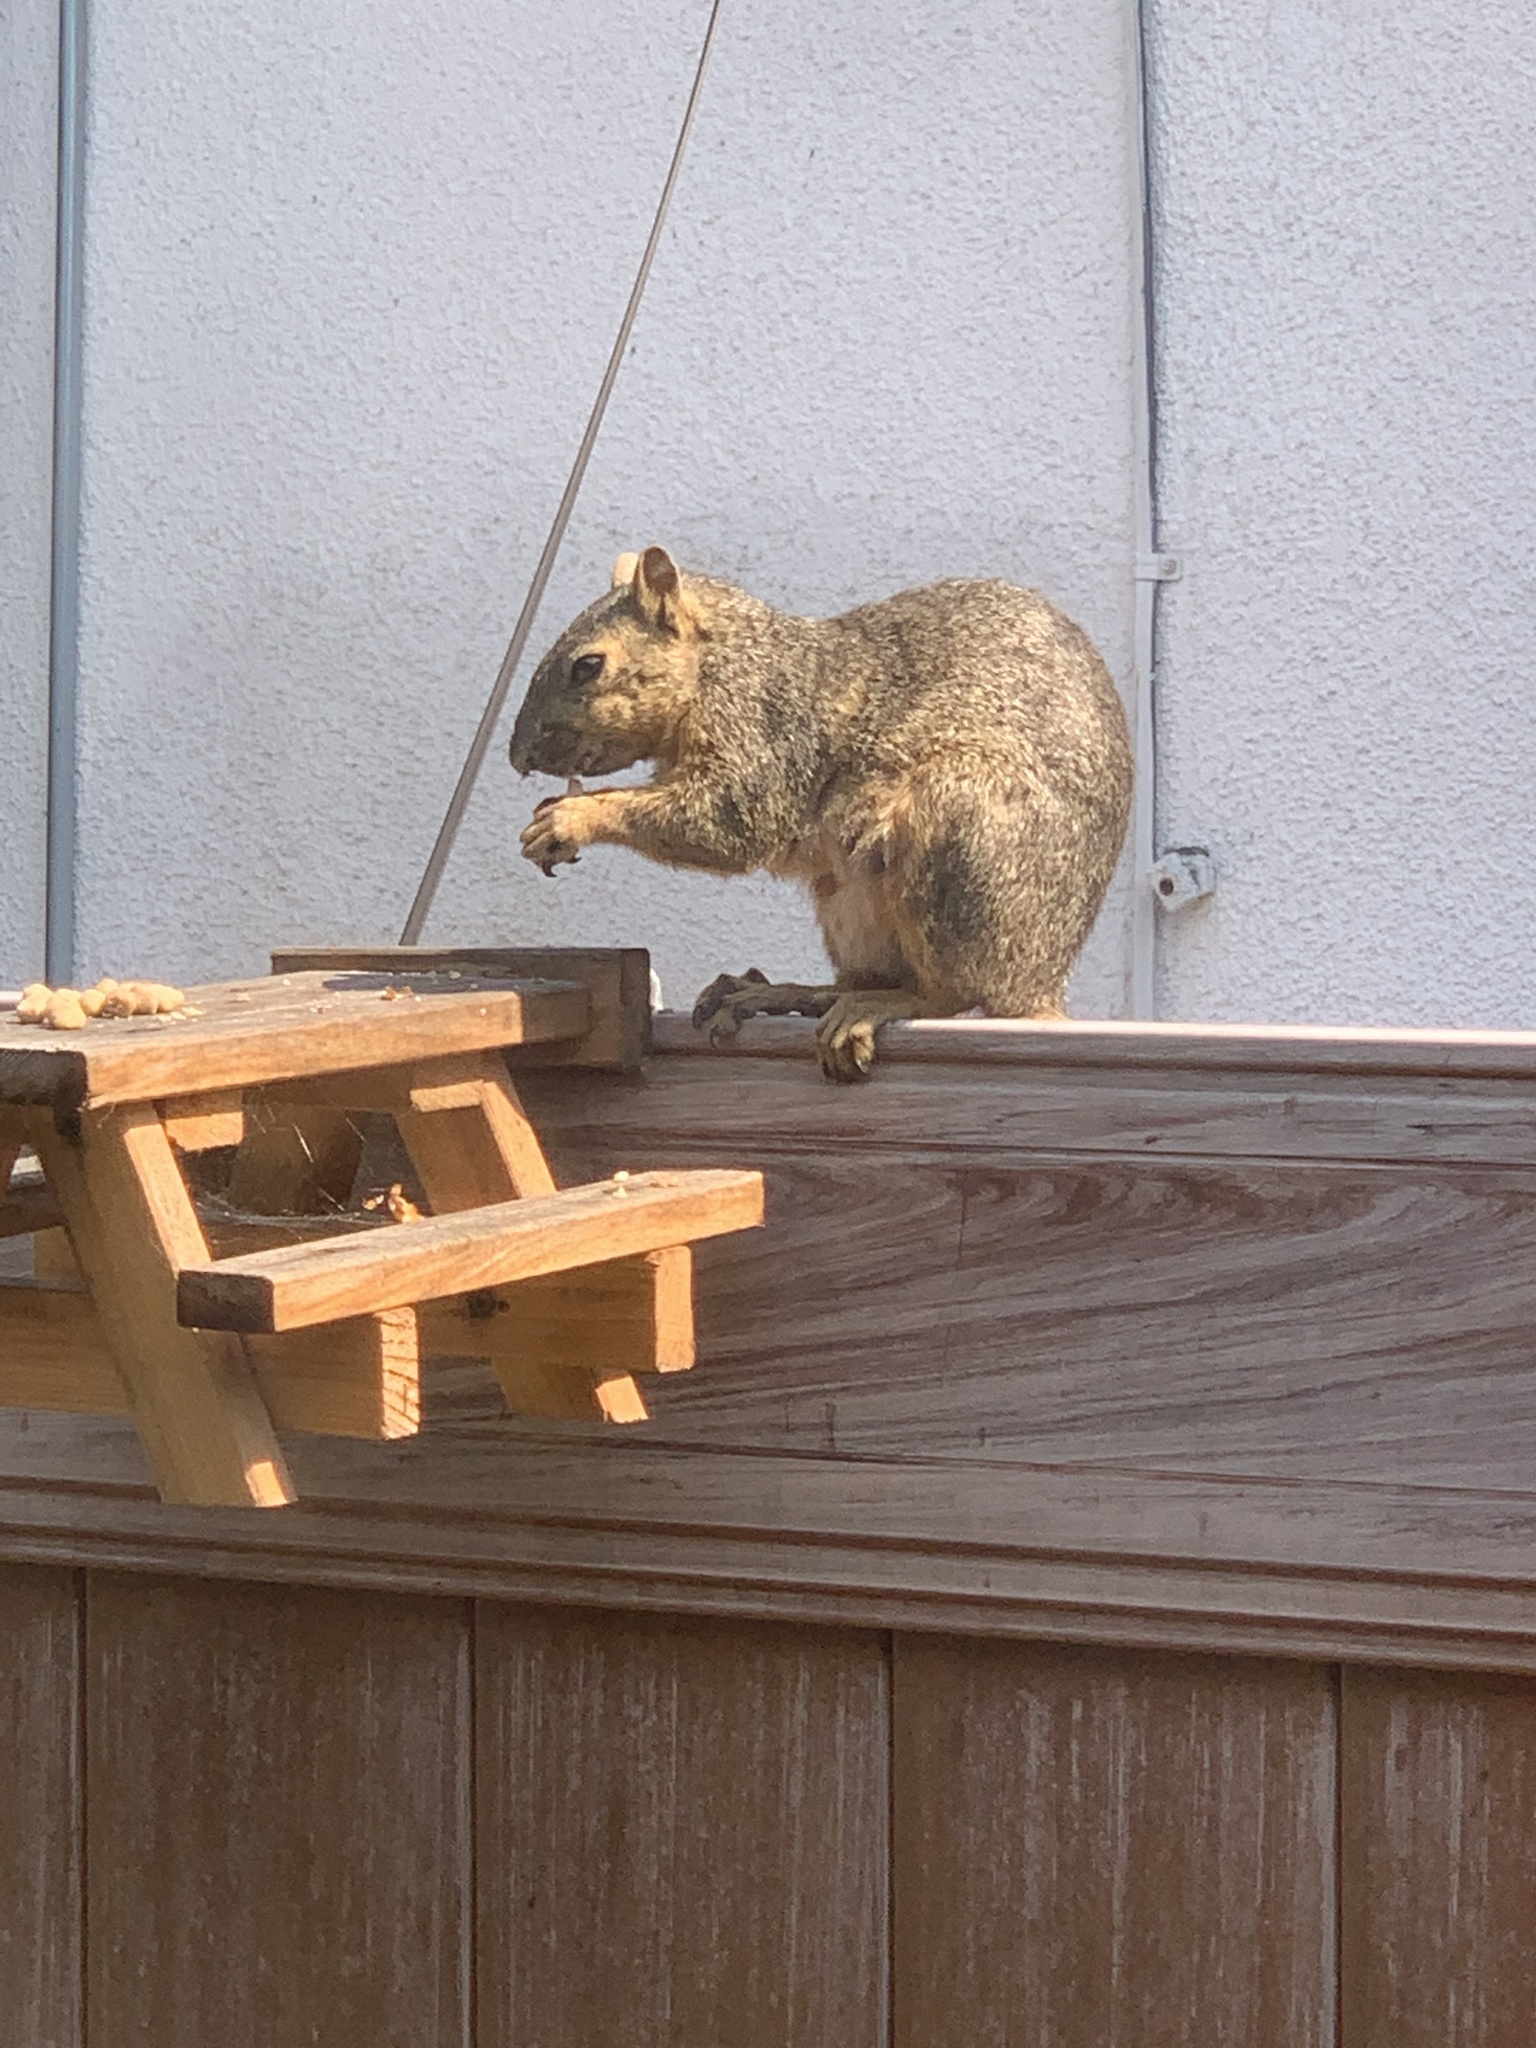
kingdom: Animalia
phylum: Chordata
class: Mammalia
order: Rodentia
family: Sciuridae
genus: Sciurus
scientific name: Sciurus niger
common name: Fox squirrel
